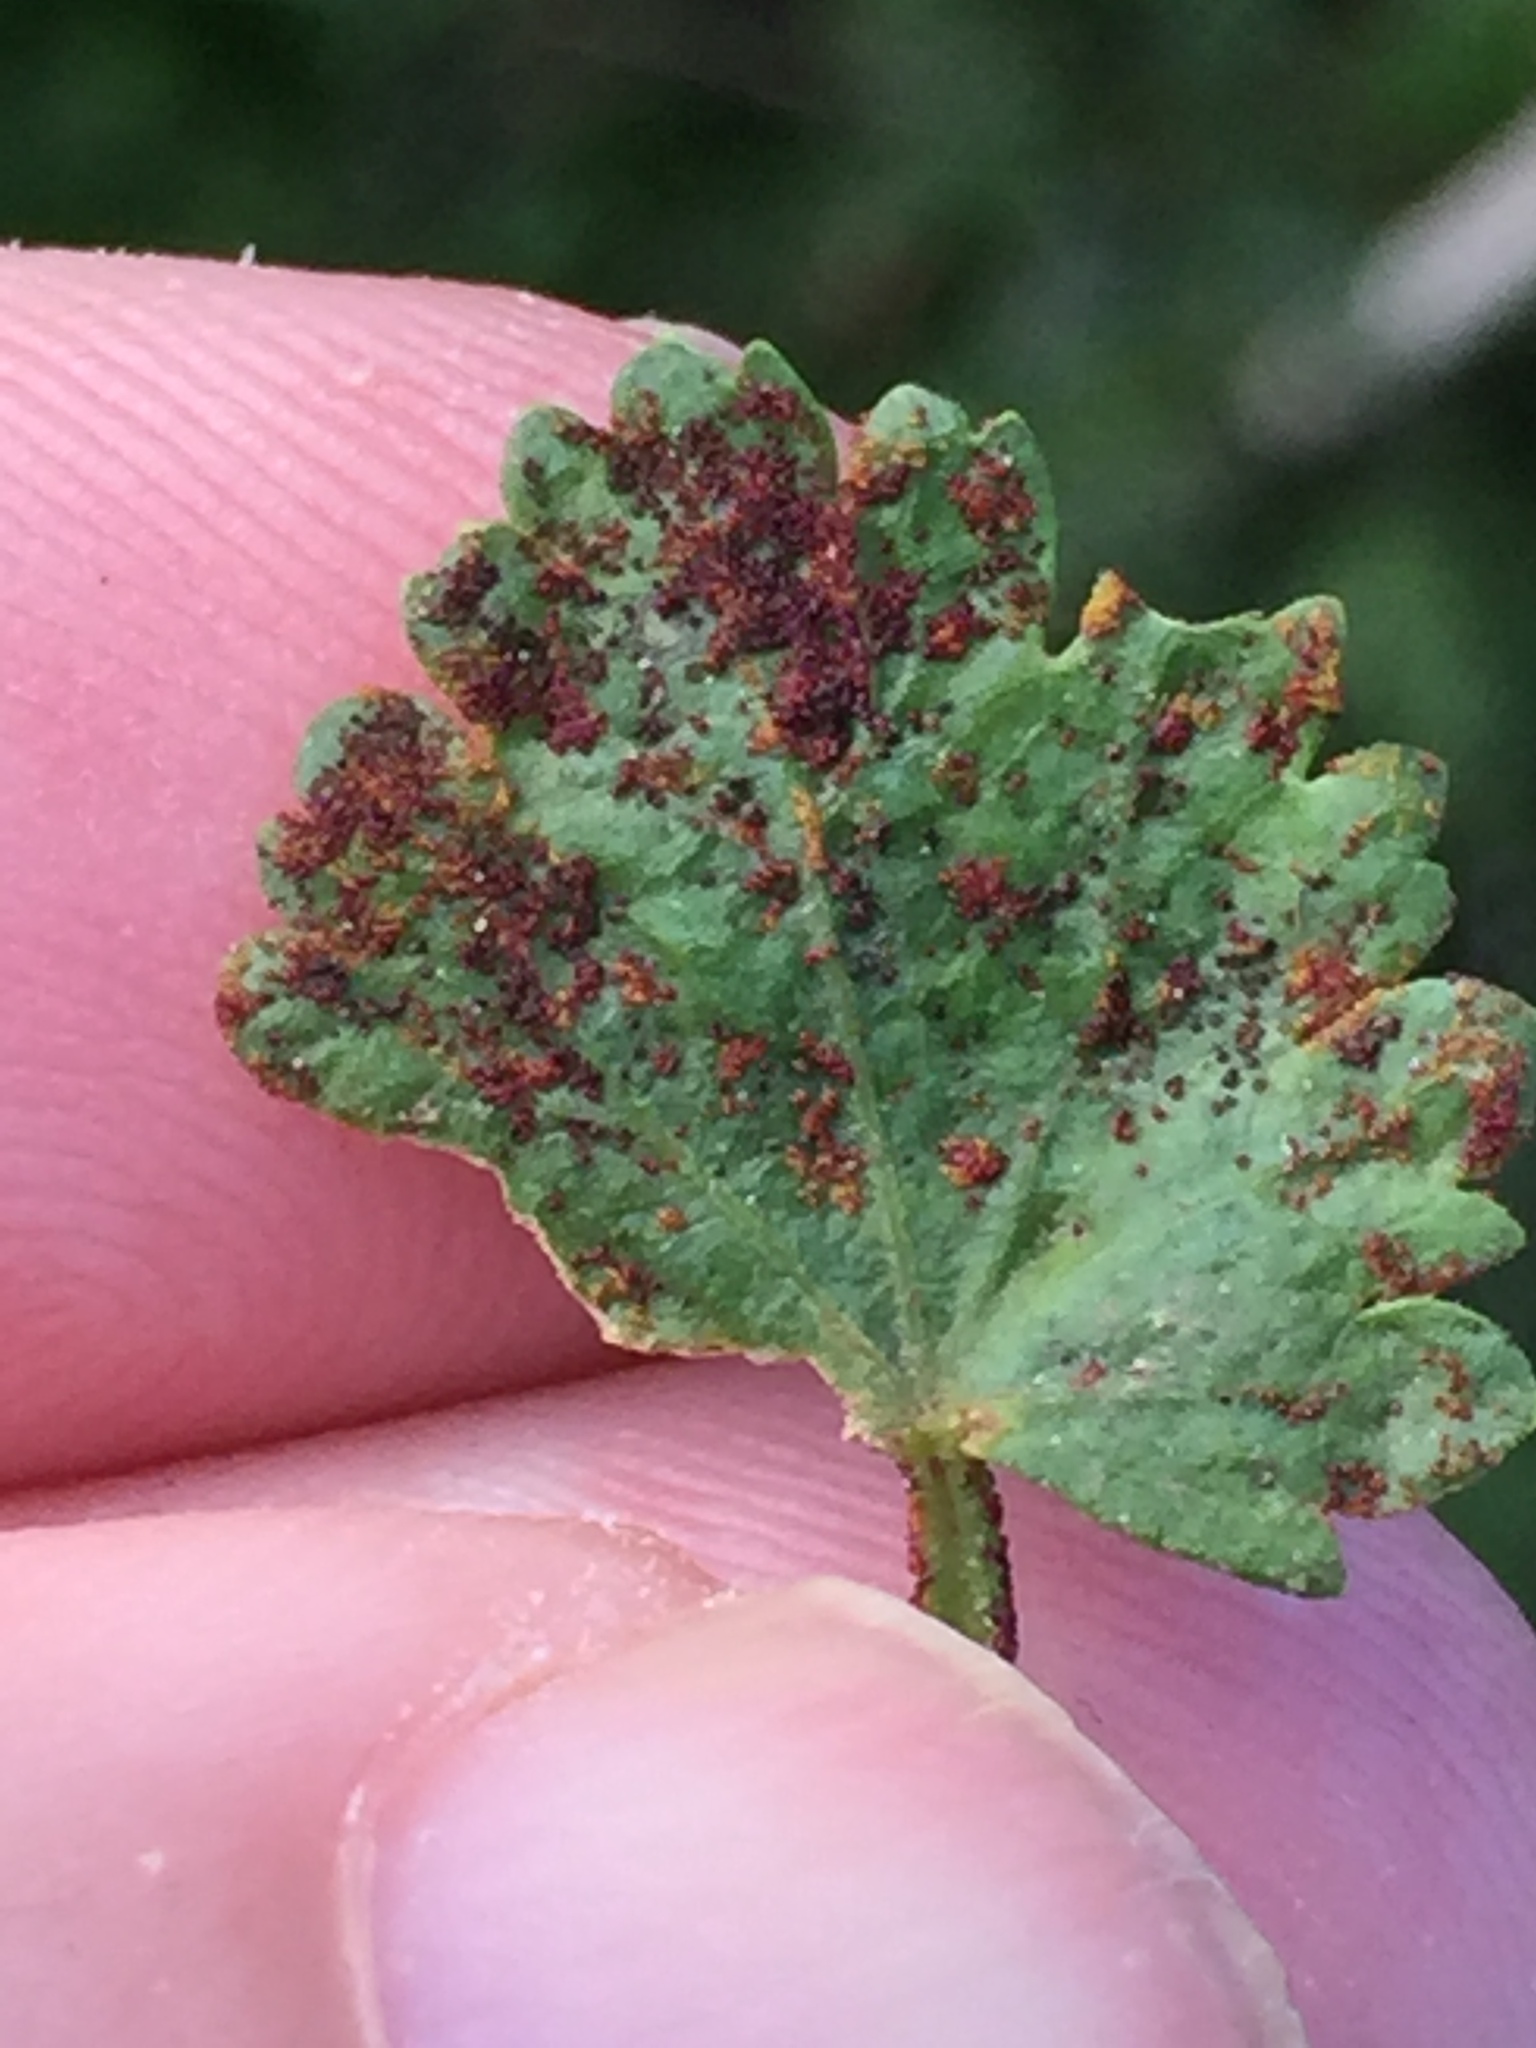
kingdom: Fungi
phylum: Chytridiomycota
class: Chytridiomycetes
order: Chytridiales
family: Synchytriaceae
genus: Synchytrium
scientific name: Synchytrium australe
